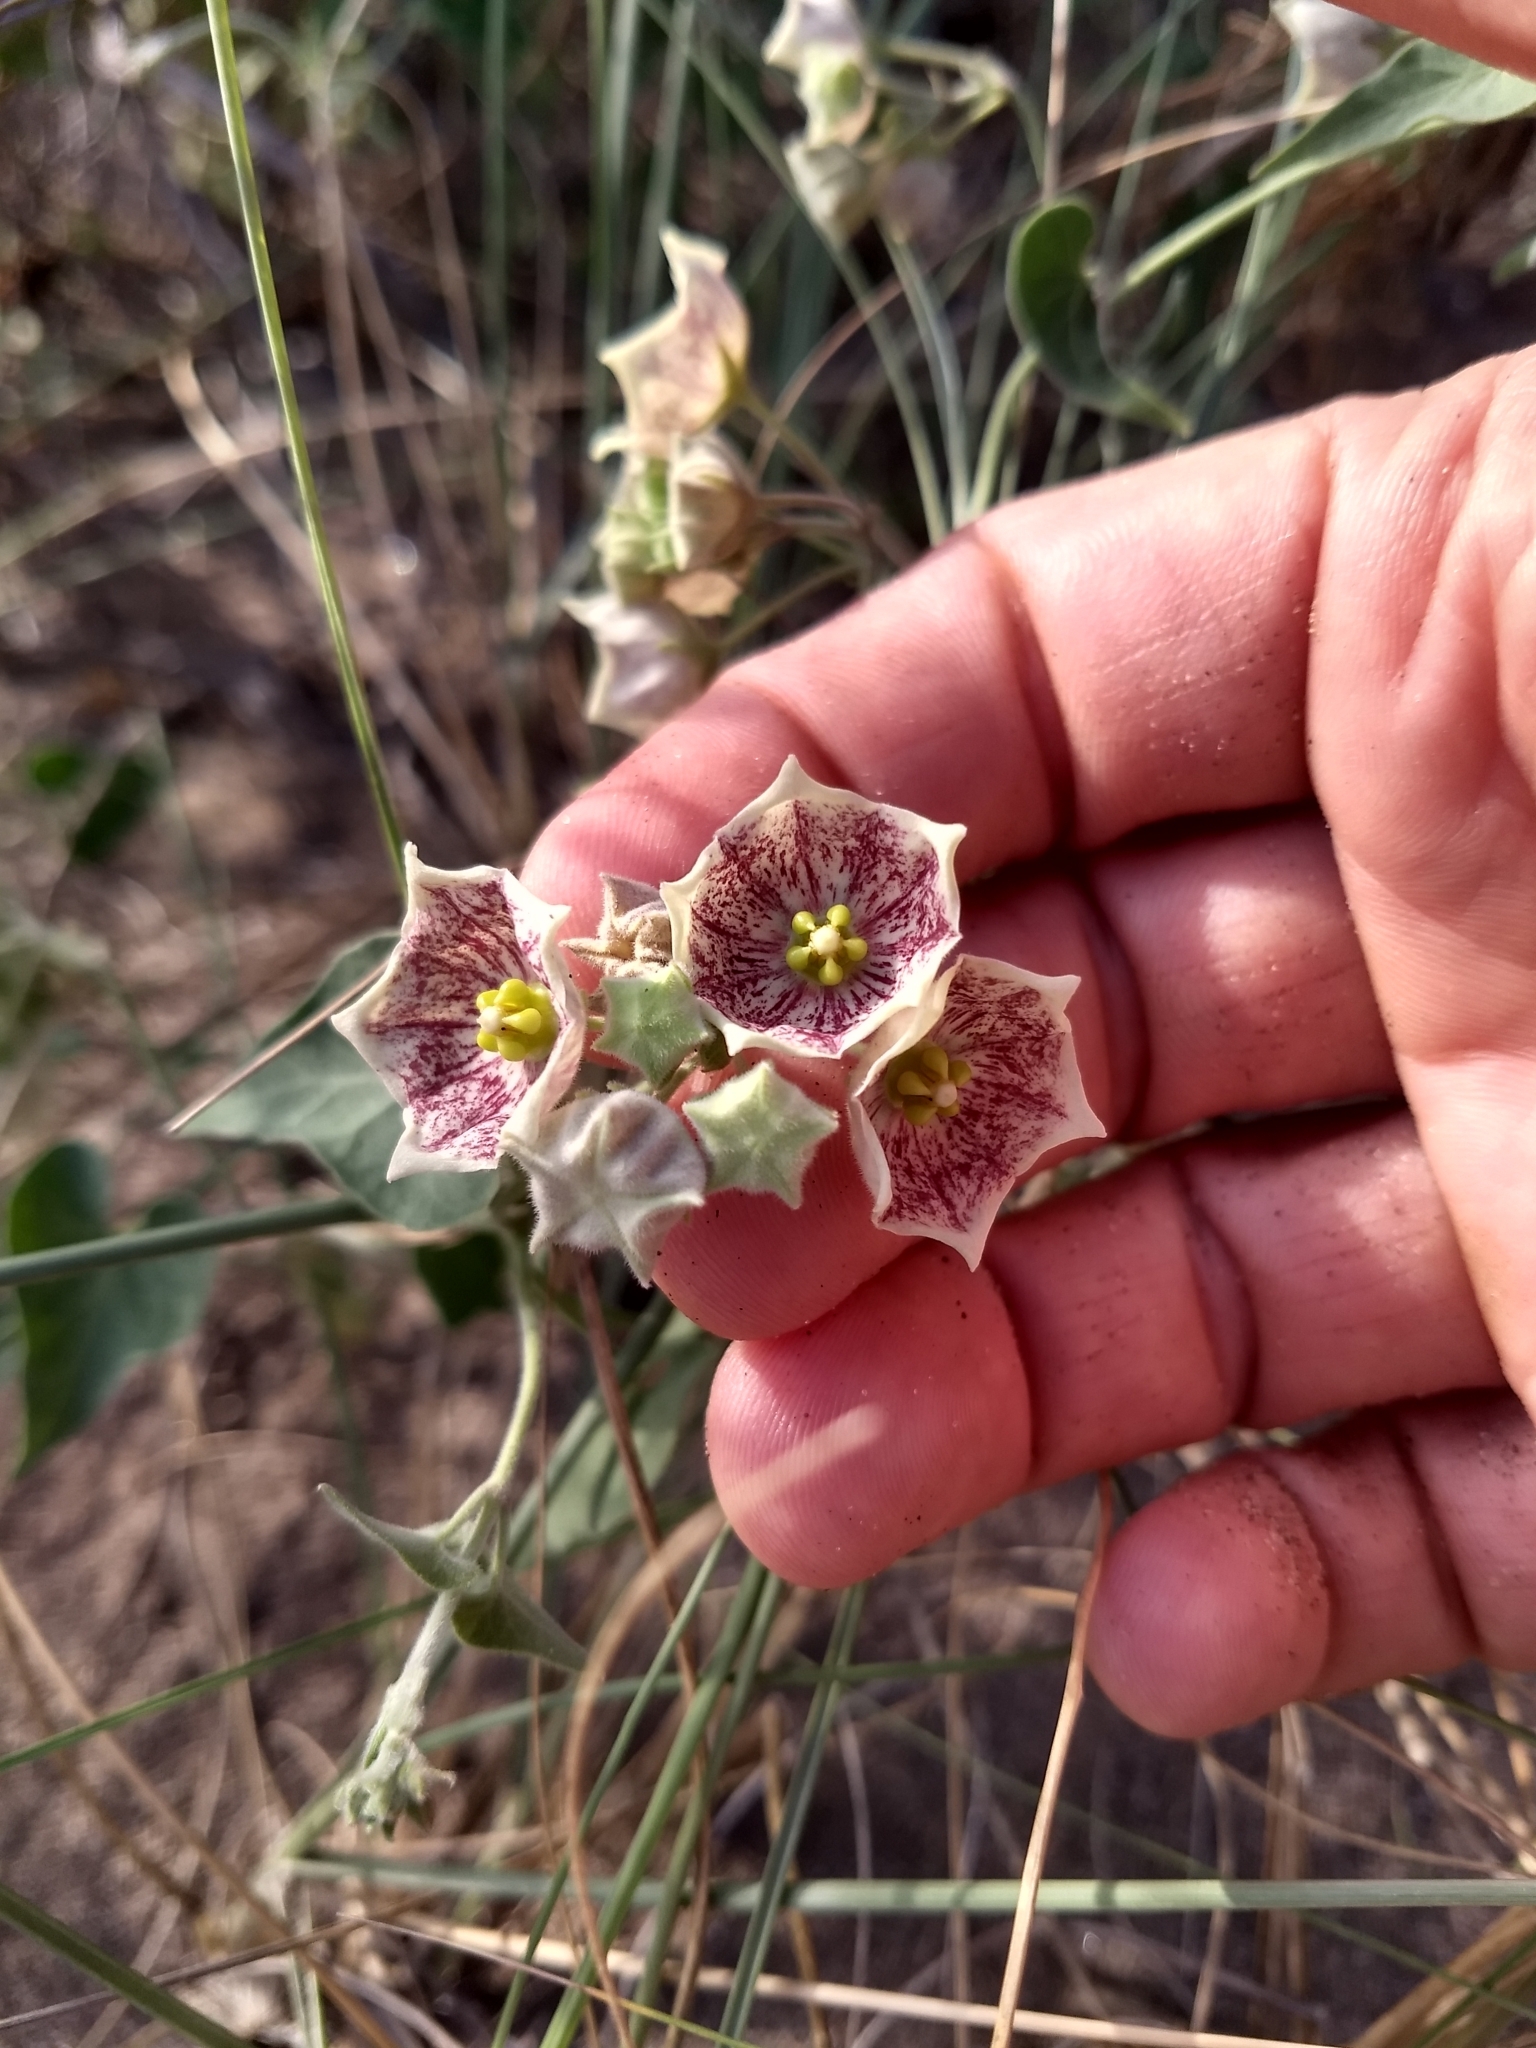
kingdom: Plantae
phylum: Tracheophyta
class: Magnoliopsida
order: Gentianales
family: Apocynaceae
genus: Philibertia
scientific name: Philibertia gilliesii
